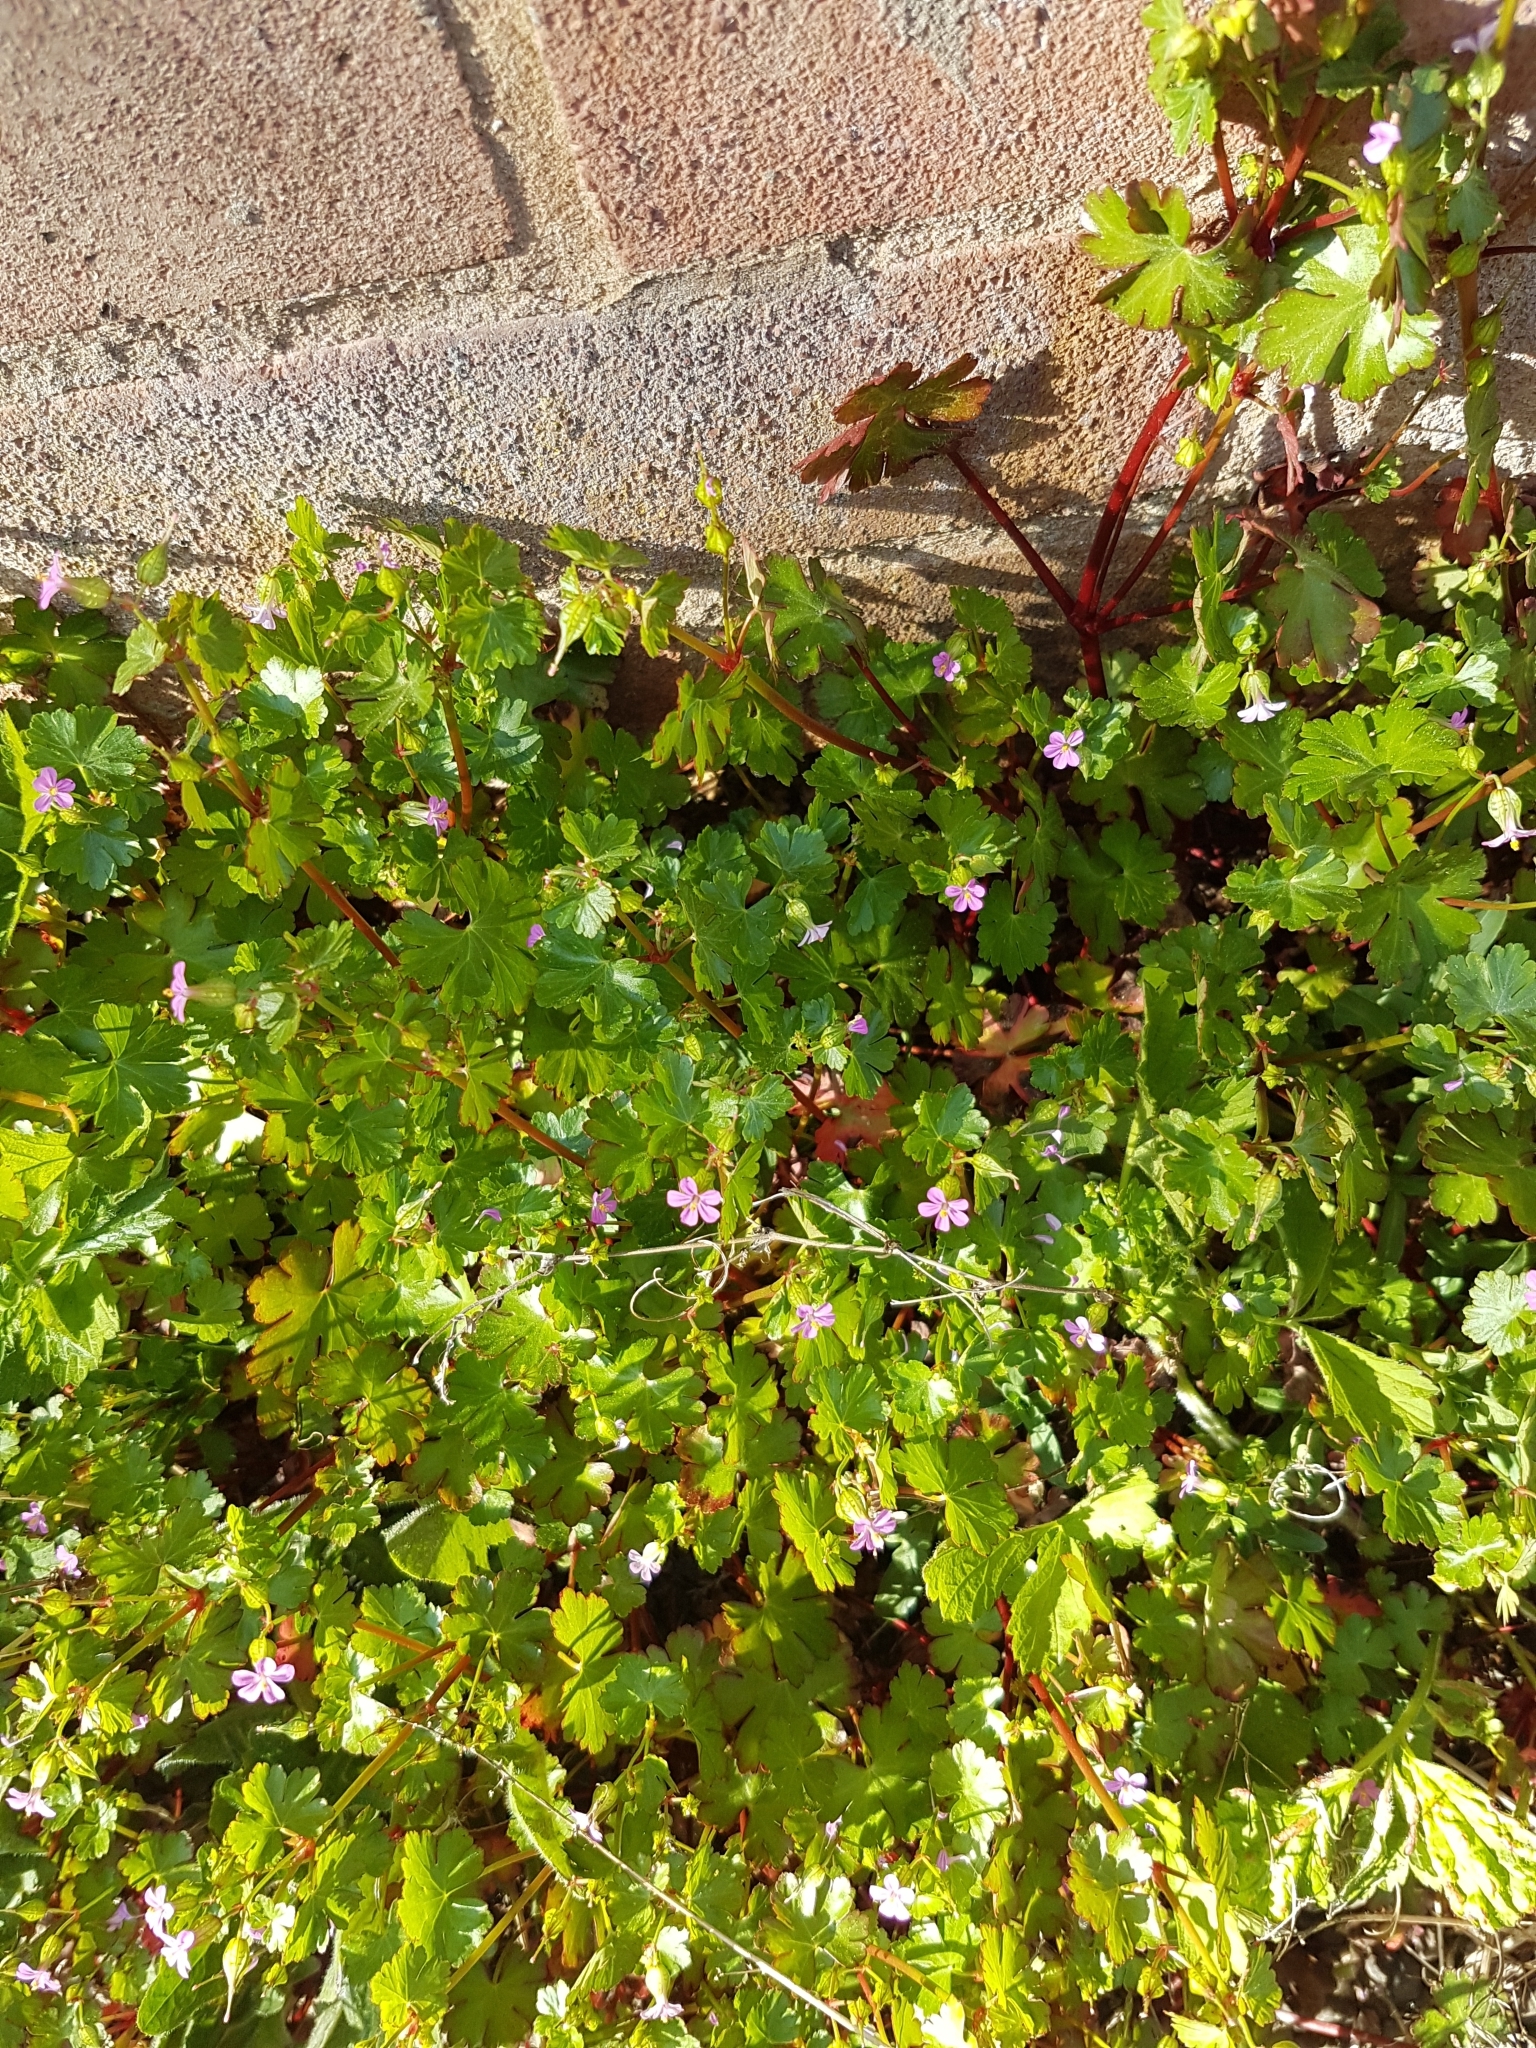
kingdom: Plantae
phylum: Tracheophyta
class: Magnoliopsida
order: Geraniales
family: Geraniaceae
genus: Geranium
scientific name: Geranium lucidum
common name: Shining crane's-bill
